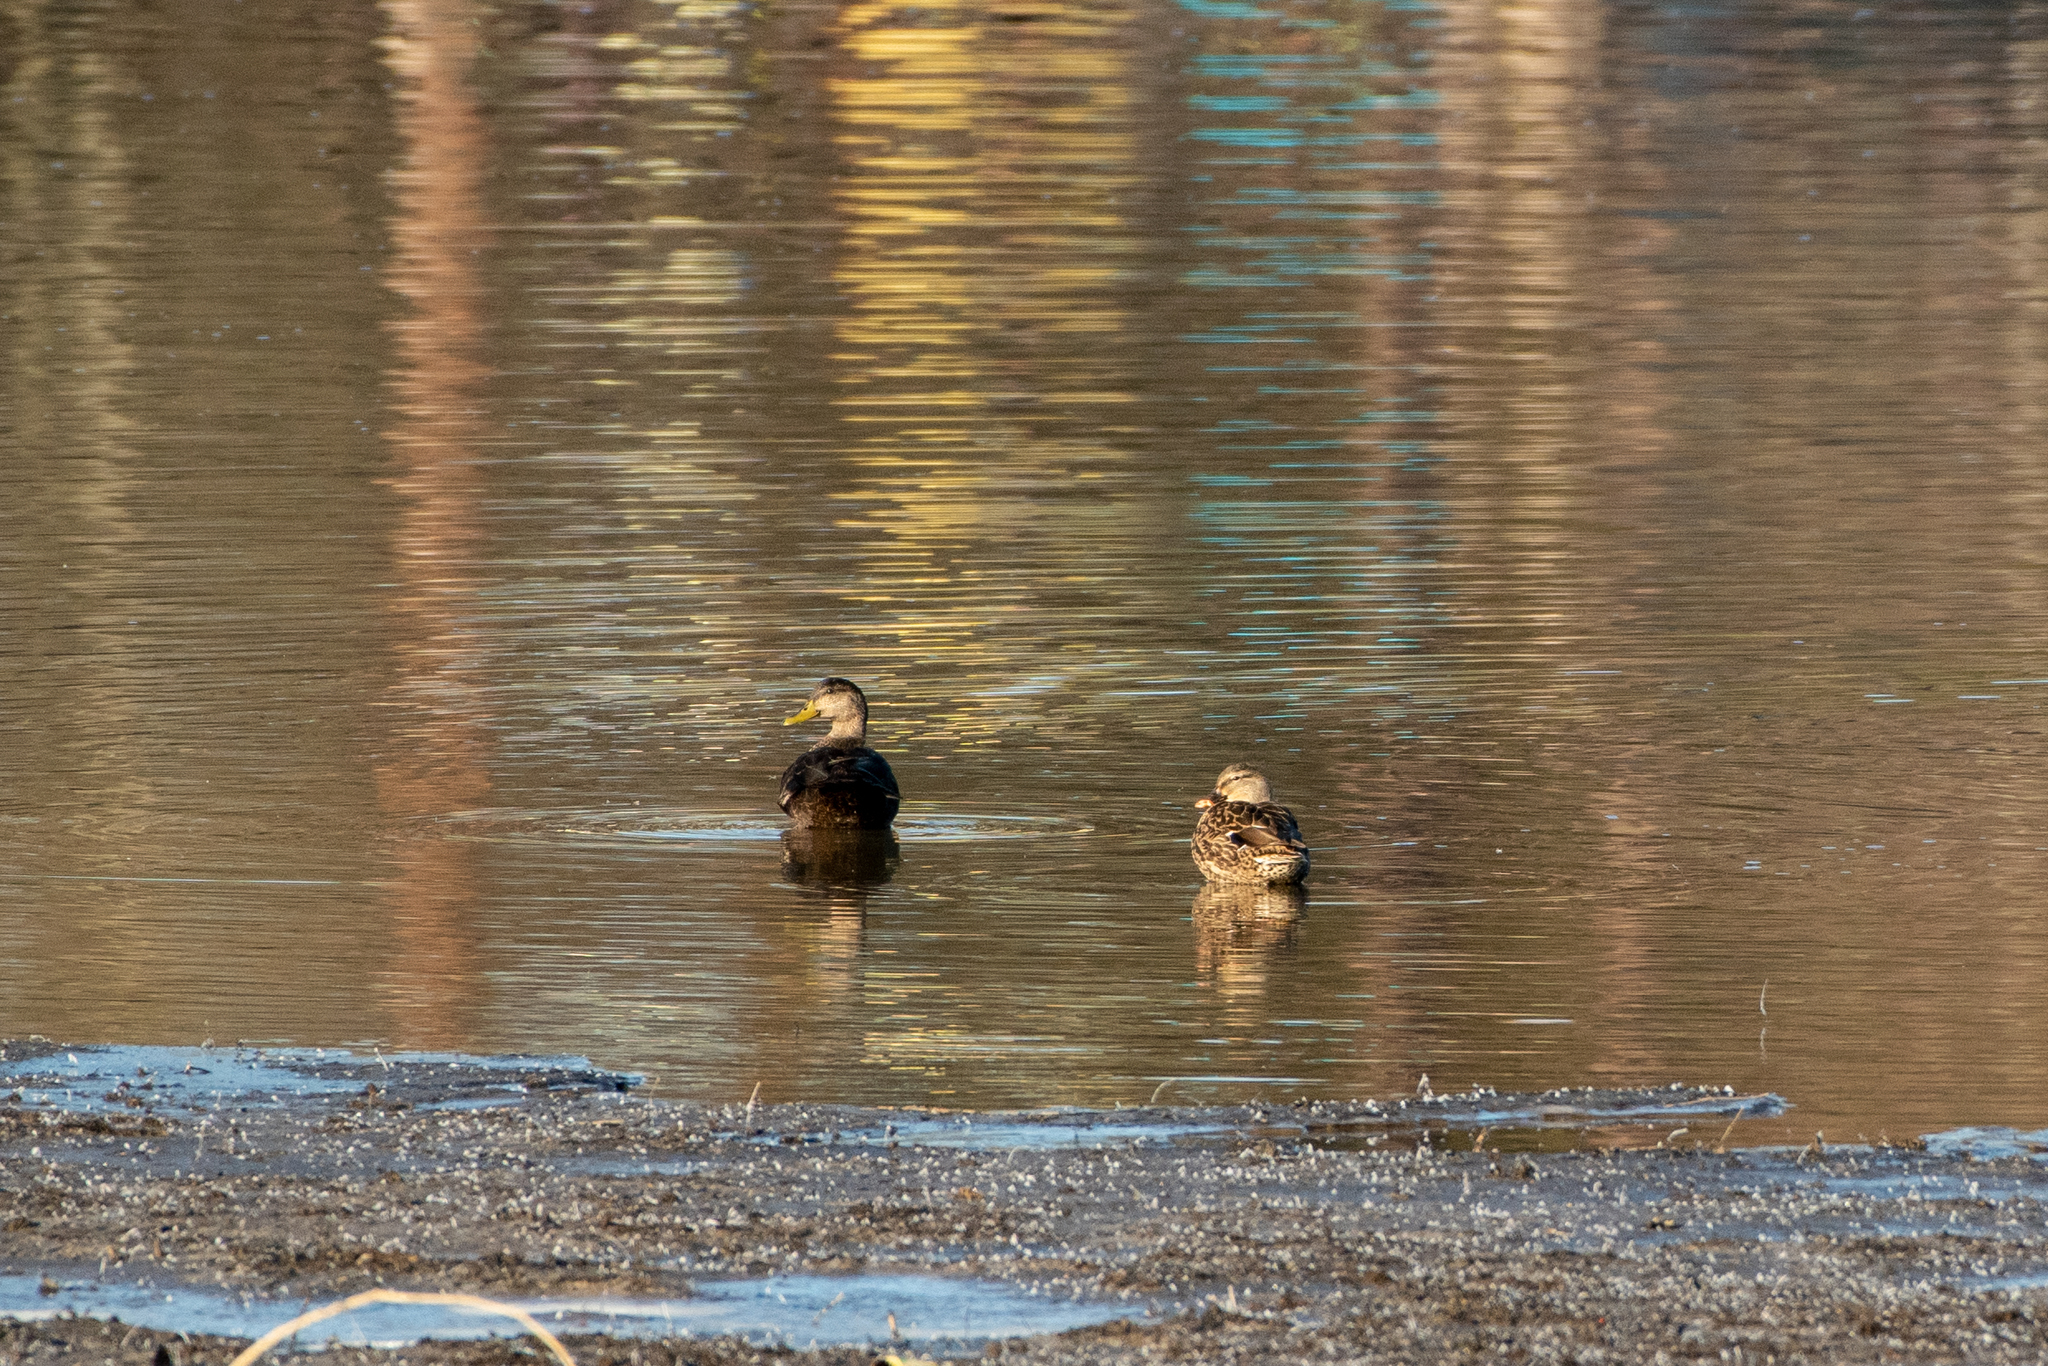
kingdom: Animalia
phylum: Chordata
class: Aves
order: Anseriformes
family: Anatidae
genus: Anas
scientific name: Anas rubripes
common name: American black duck
